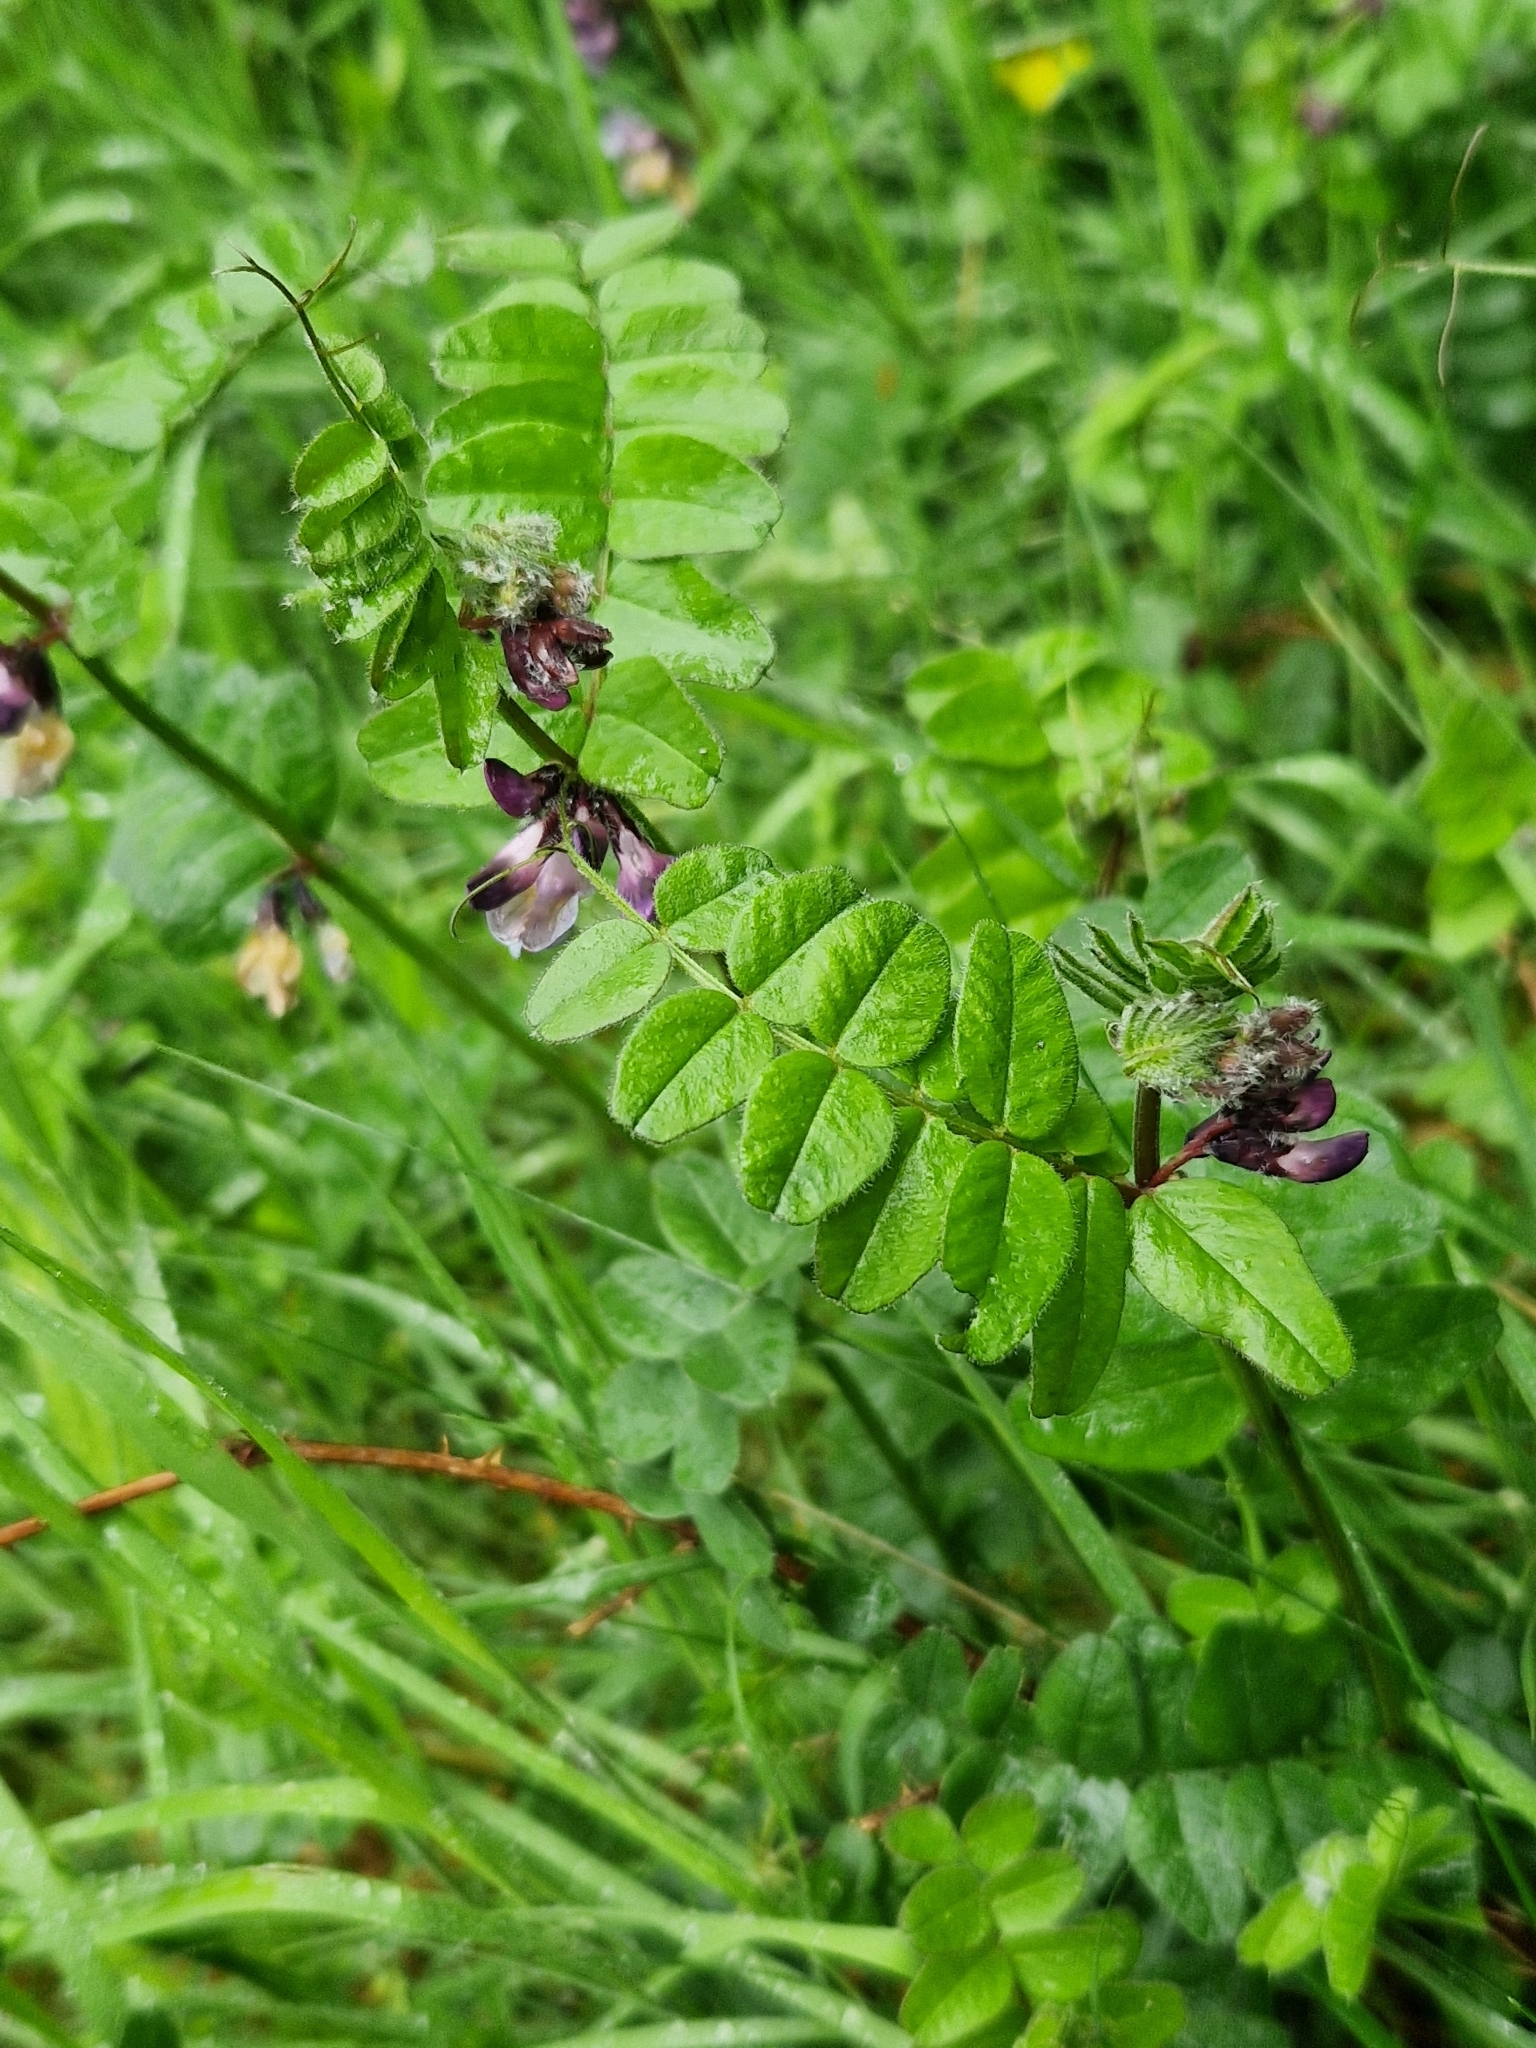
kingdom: Plantae
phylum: Tracheophyta
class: Magnoliopsida
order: Fabales
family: Fabaceae
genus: Vicia
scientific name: Vicia sepium
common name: Bush vetch
